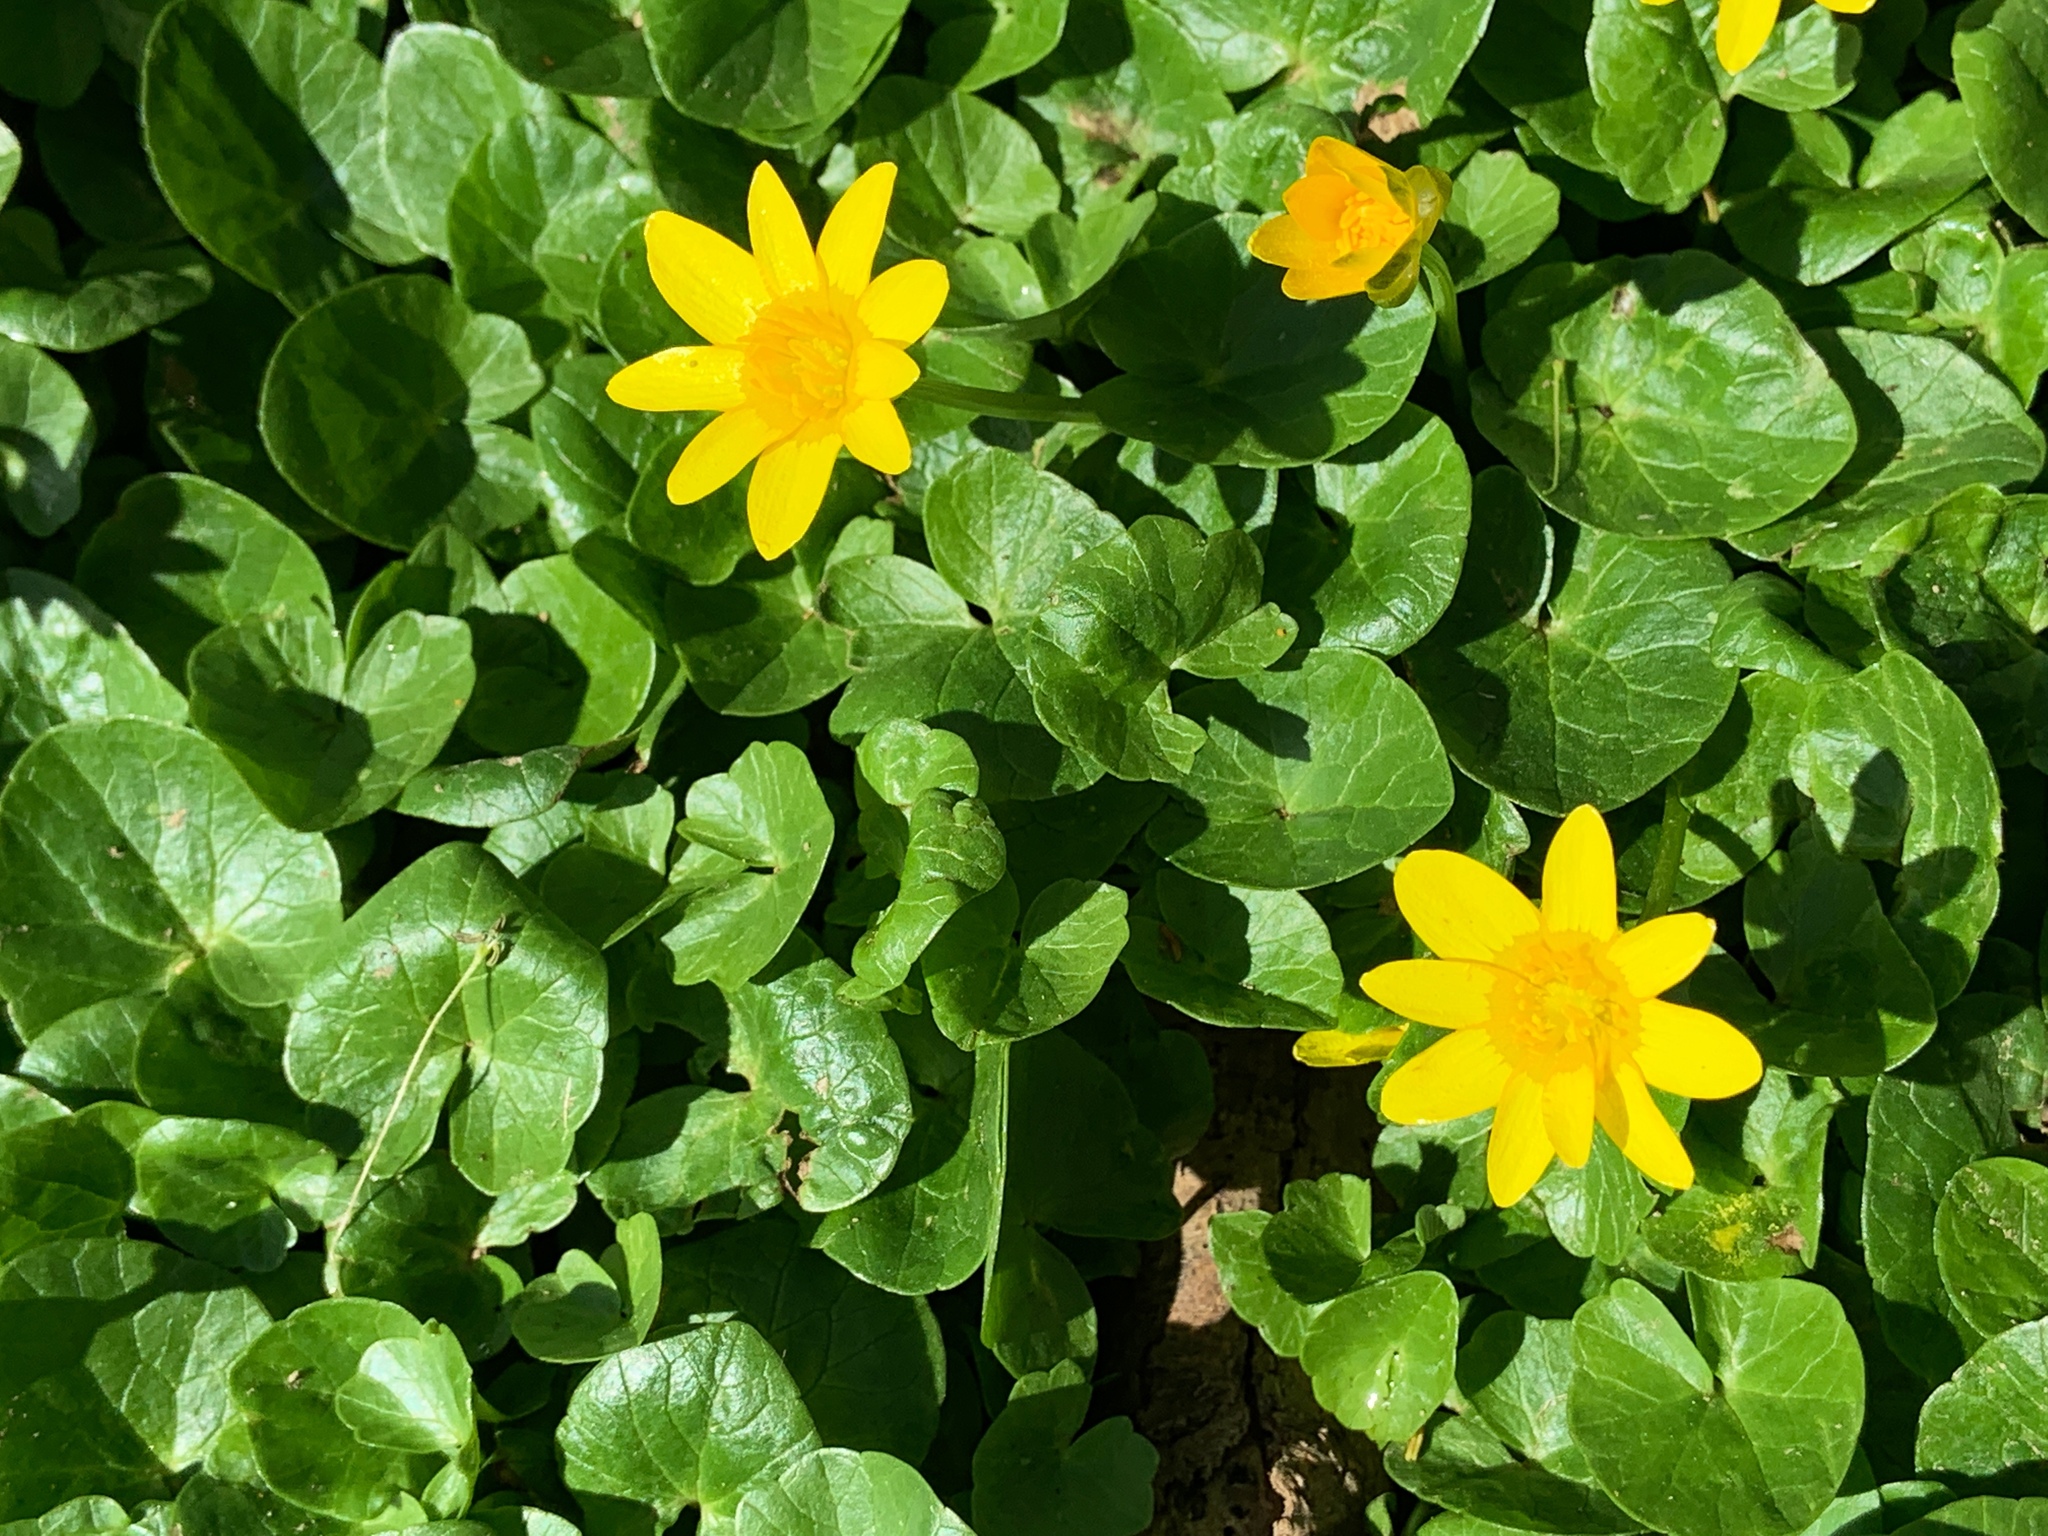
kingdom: Plantae
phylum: Tracheophyta
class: Magnoliopsida
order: Ranunculales
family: Ranunculaceae
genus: Ficaria
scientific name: Ficaria verna
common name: Lesser celandine
